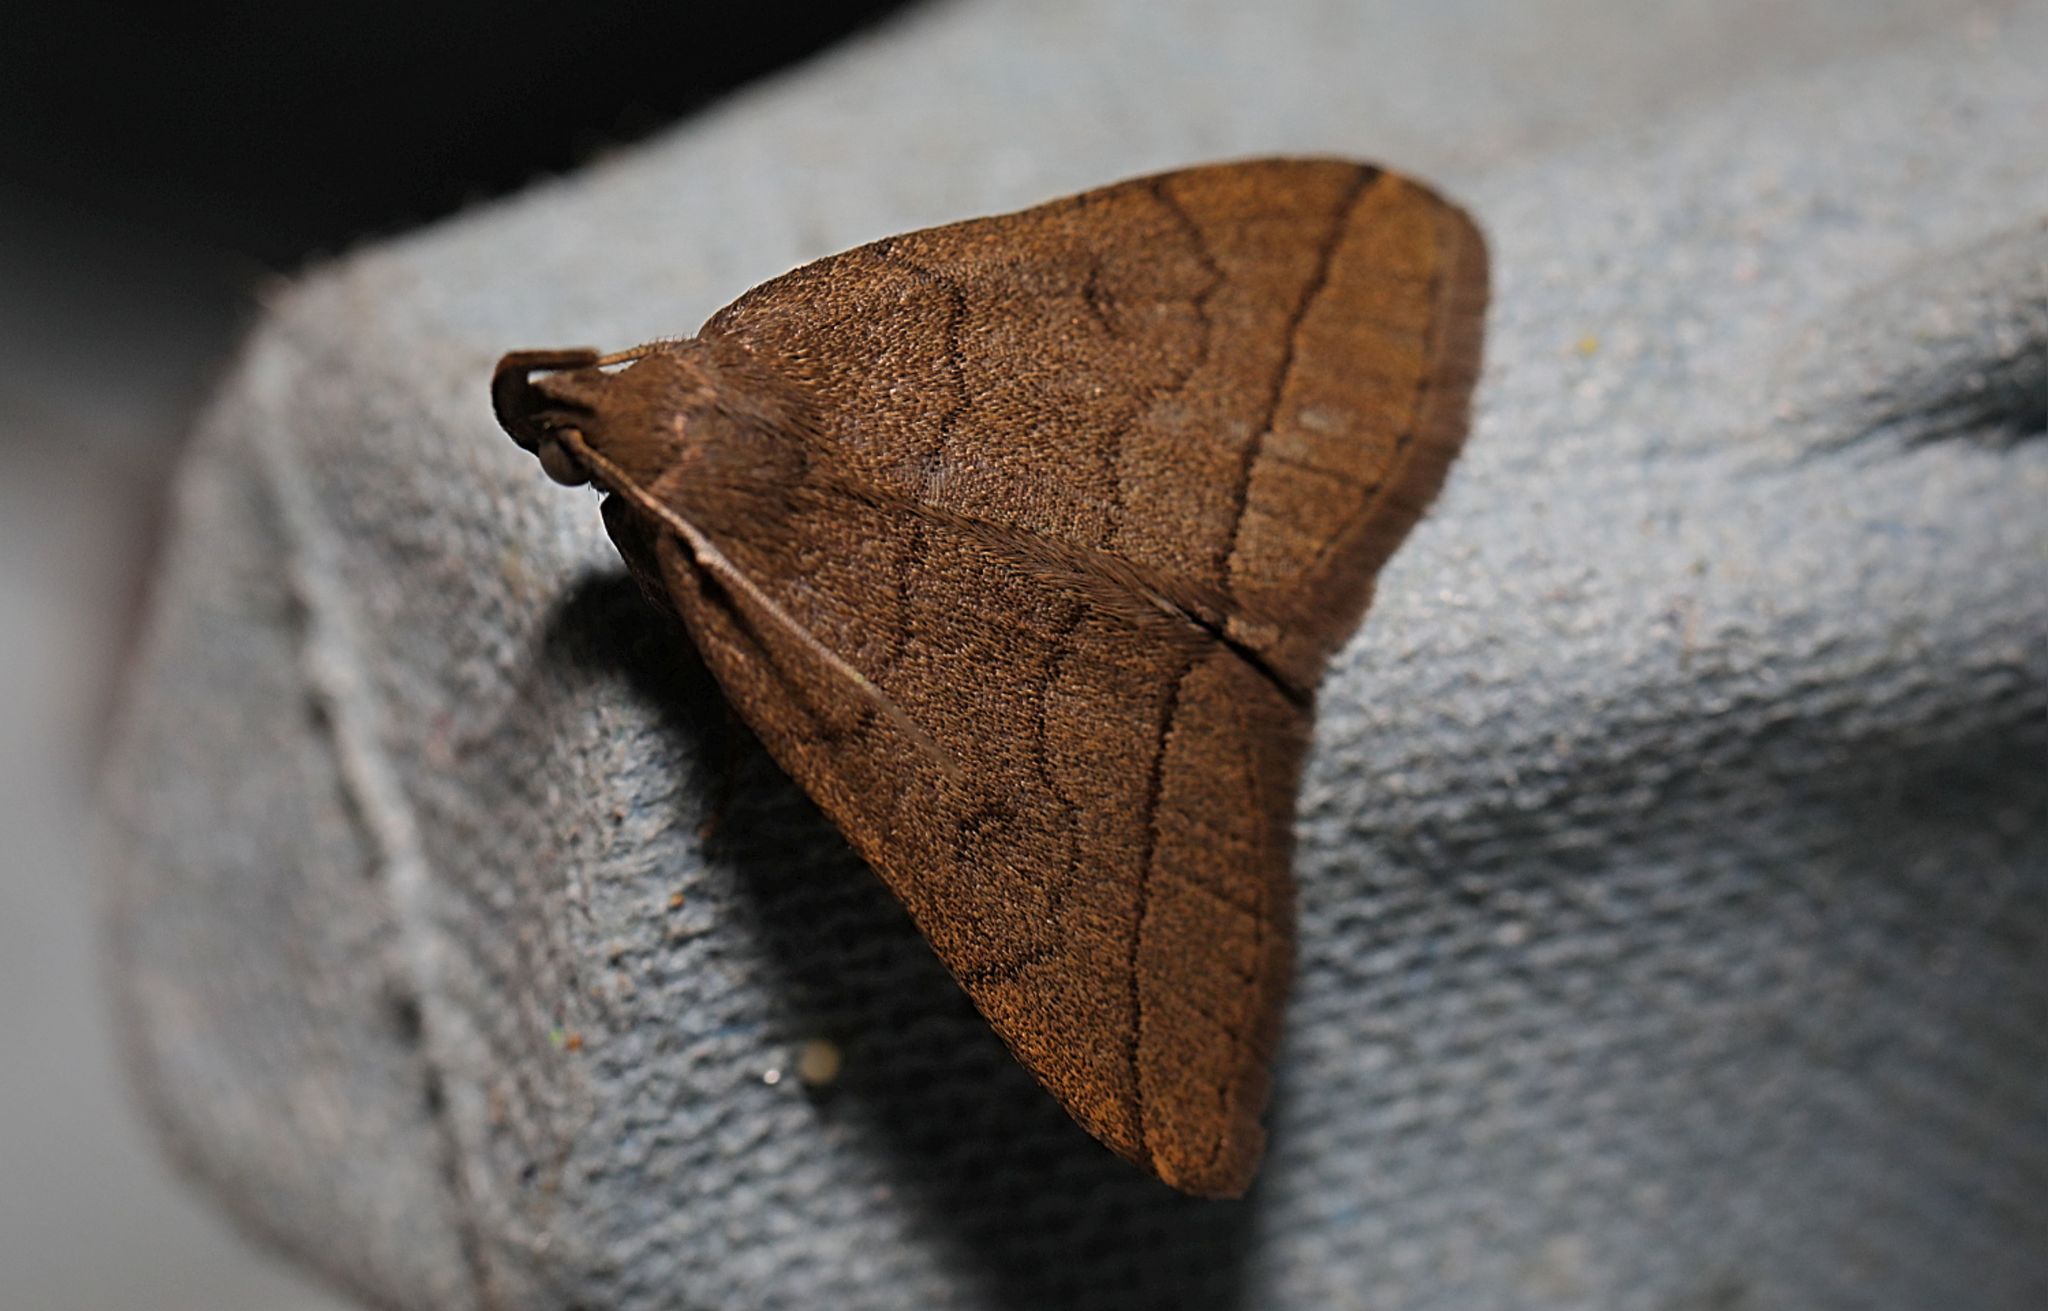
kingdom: Animalia
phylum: Arthropoda
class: Insecta
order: Lepidoptera
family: Erebidae
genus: Herminia
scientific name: Herminia tarsipennalis
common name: Fan-foot
